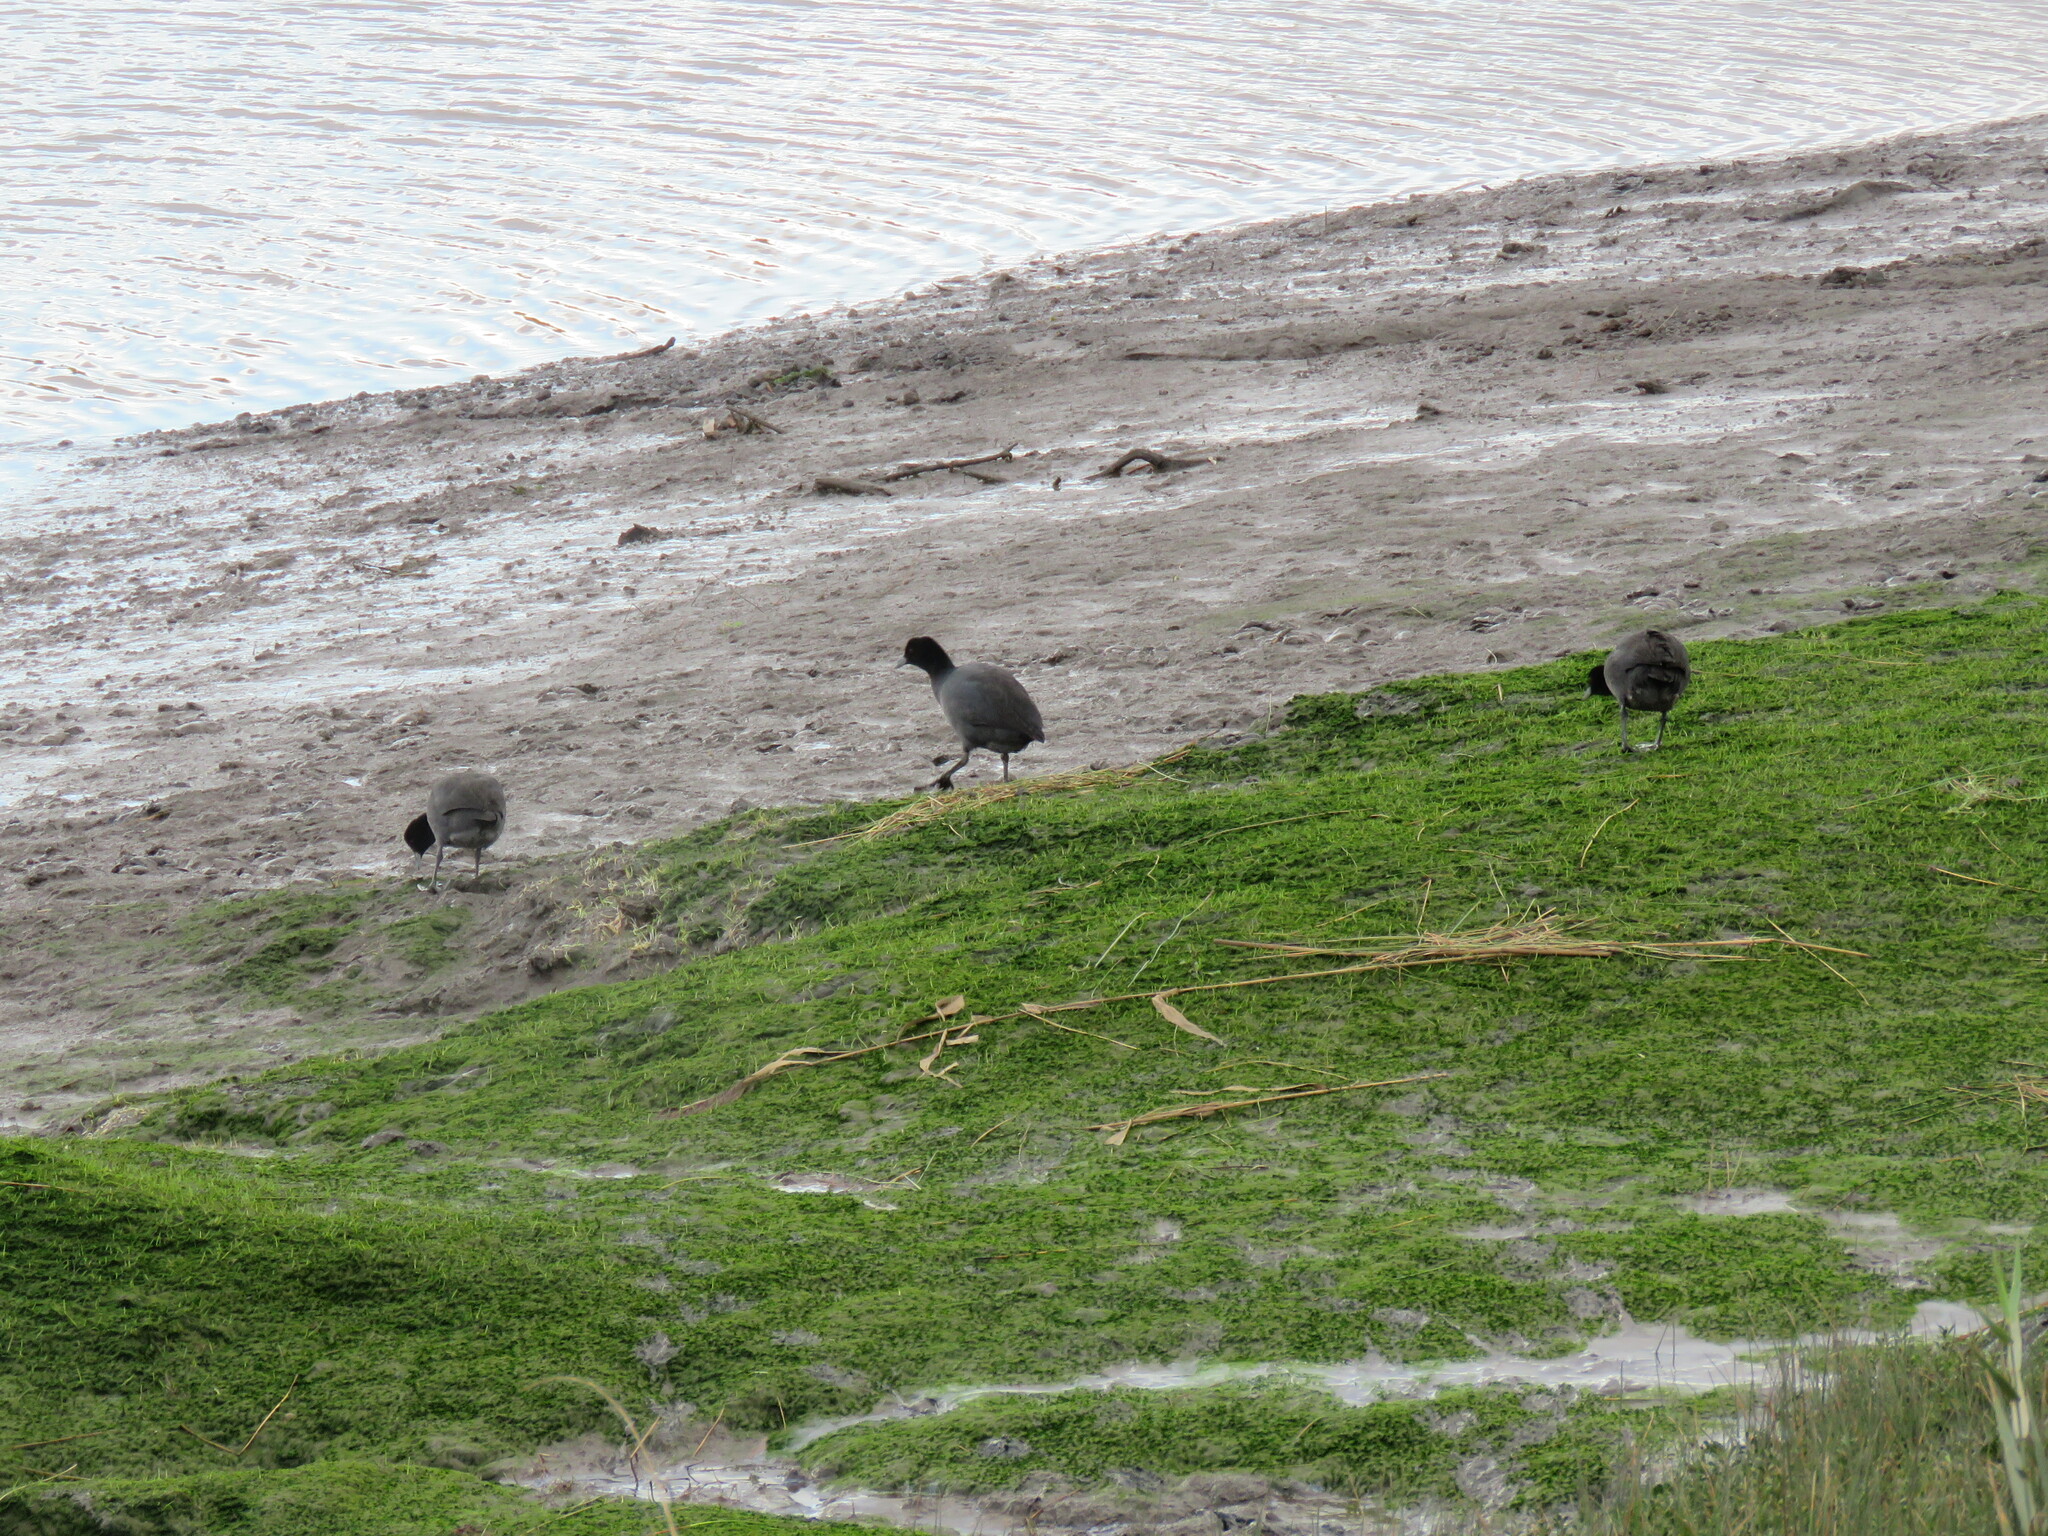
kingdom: Animalia
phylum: Chordata
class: Aves
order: Gruiformes
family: Rallidae
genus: Fulica
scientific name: Fulica atra
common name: Eurasian coot
